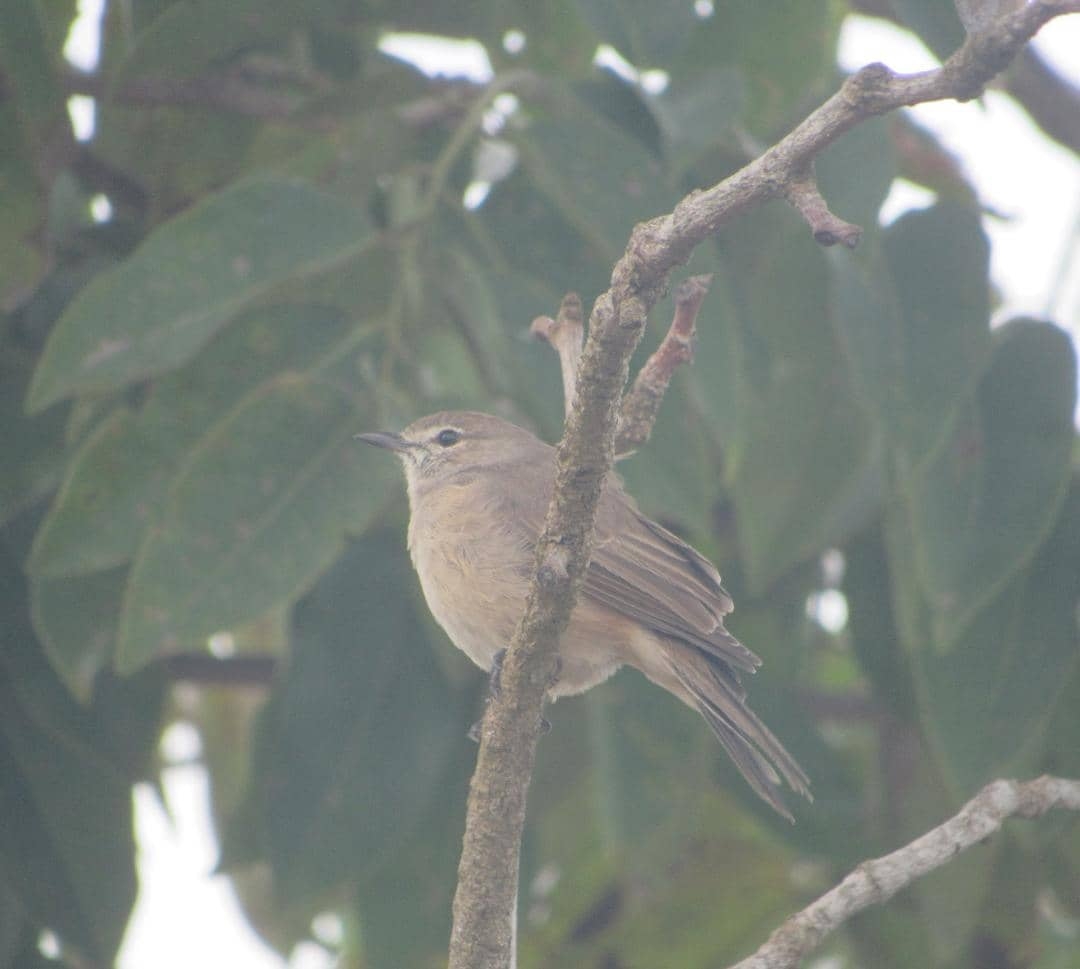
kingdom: Animalia
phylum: Chordata
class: Aves
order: Passeriformes
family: Muscicapidae
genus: Bradornis
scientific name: Bradornis pallidus
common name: Pale flycatcher
